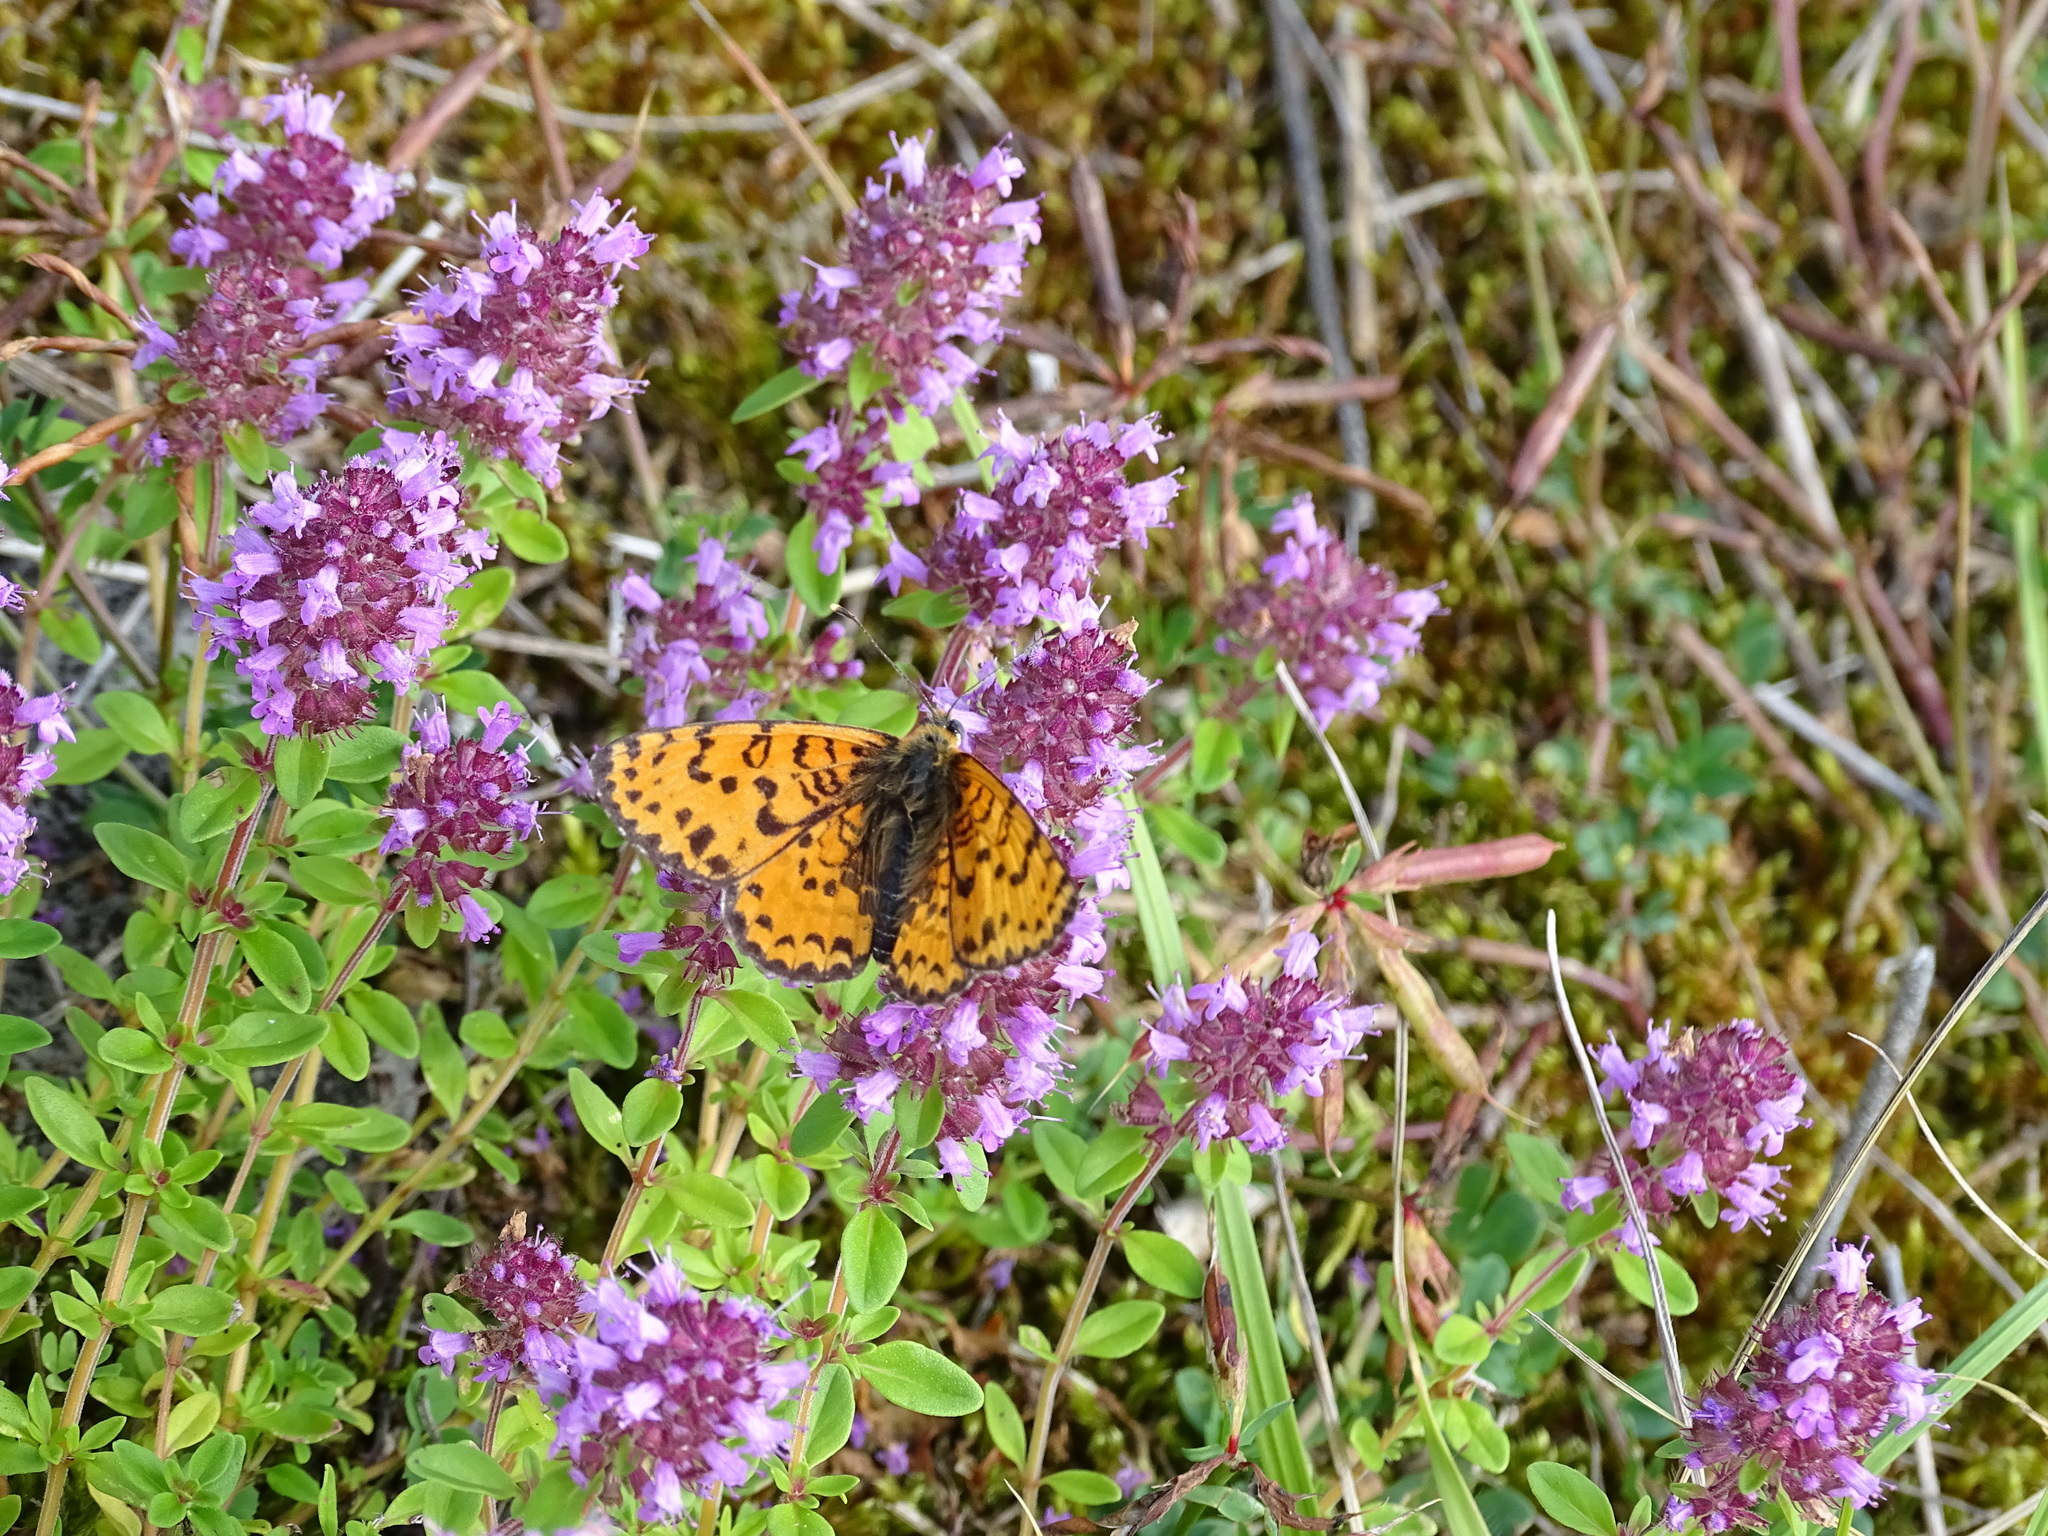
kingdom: Animalia
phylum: Arthropoda
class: Insecta
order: Lepidoptera
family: Nymphalidae
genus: Melitaea
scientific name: Melitaea didyma
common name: Spotted fritillary
